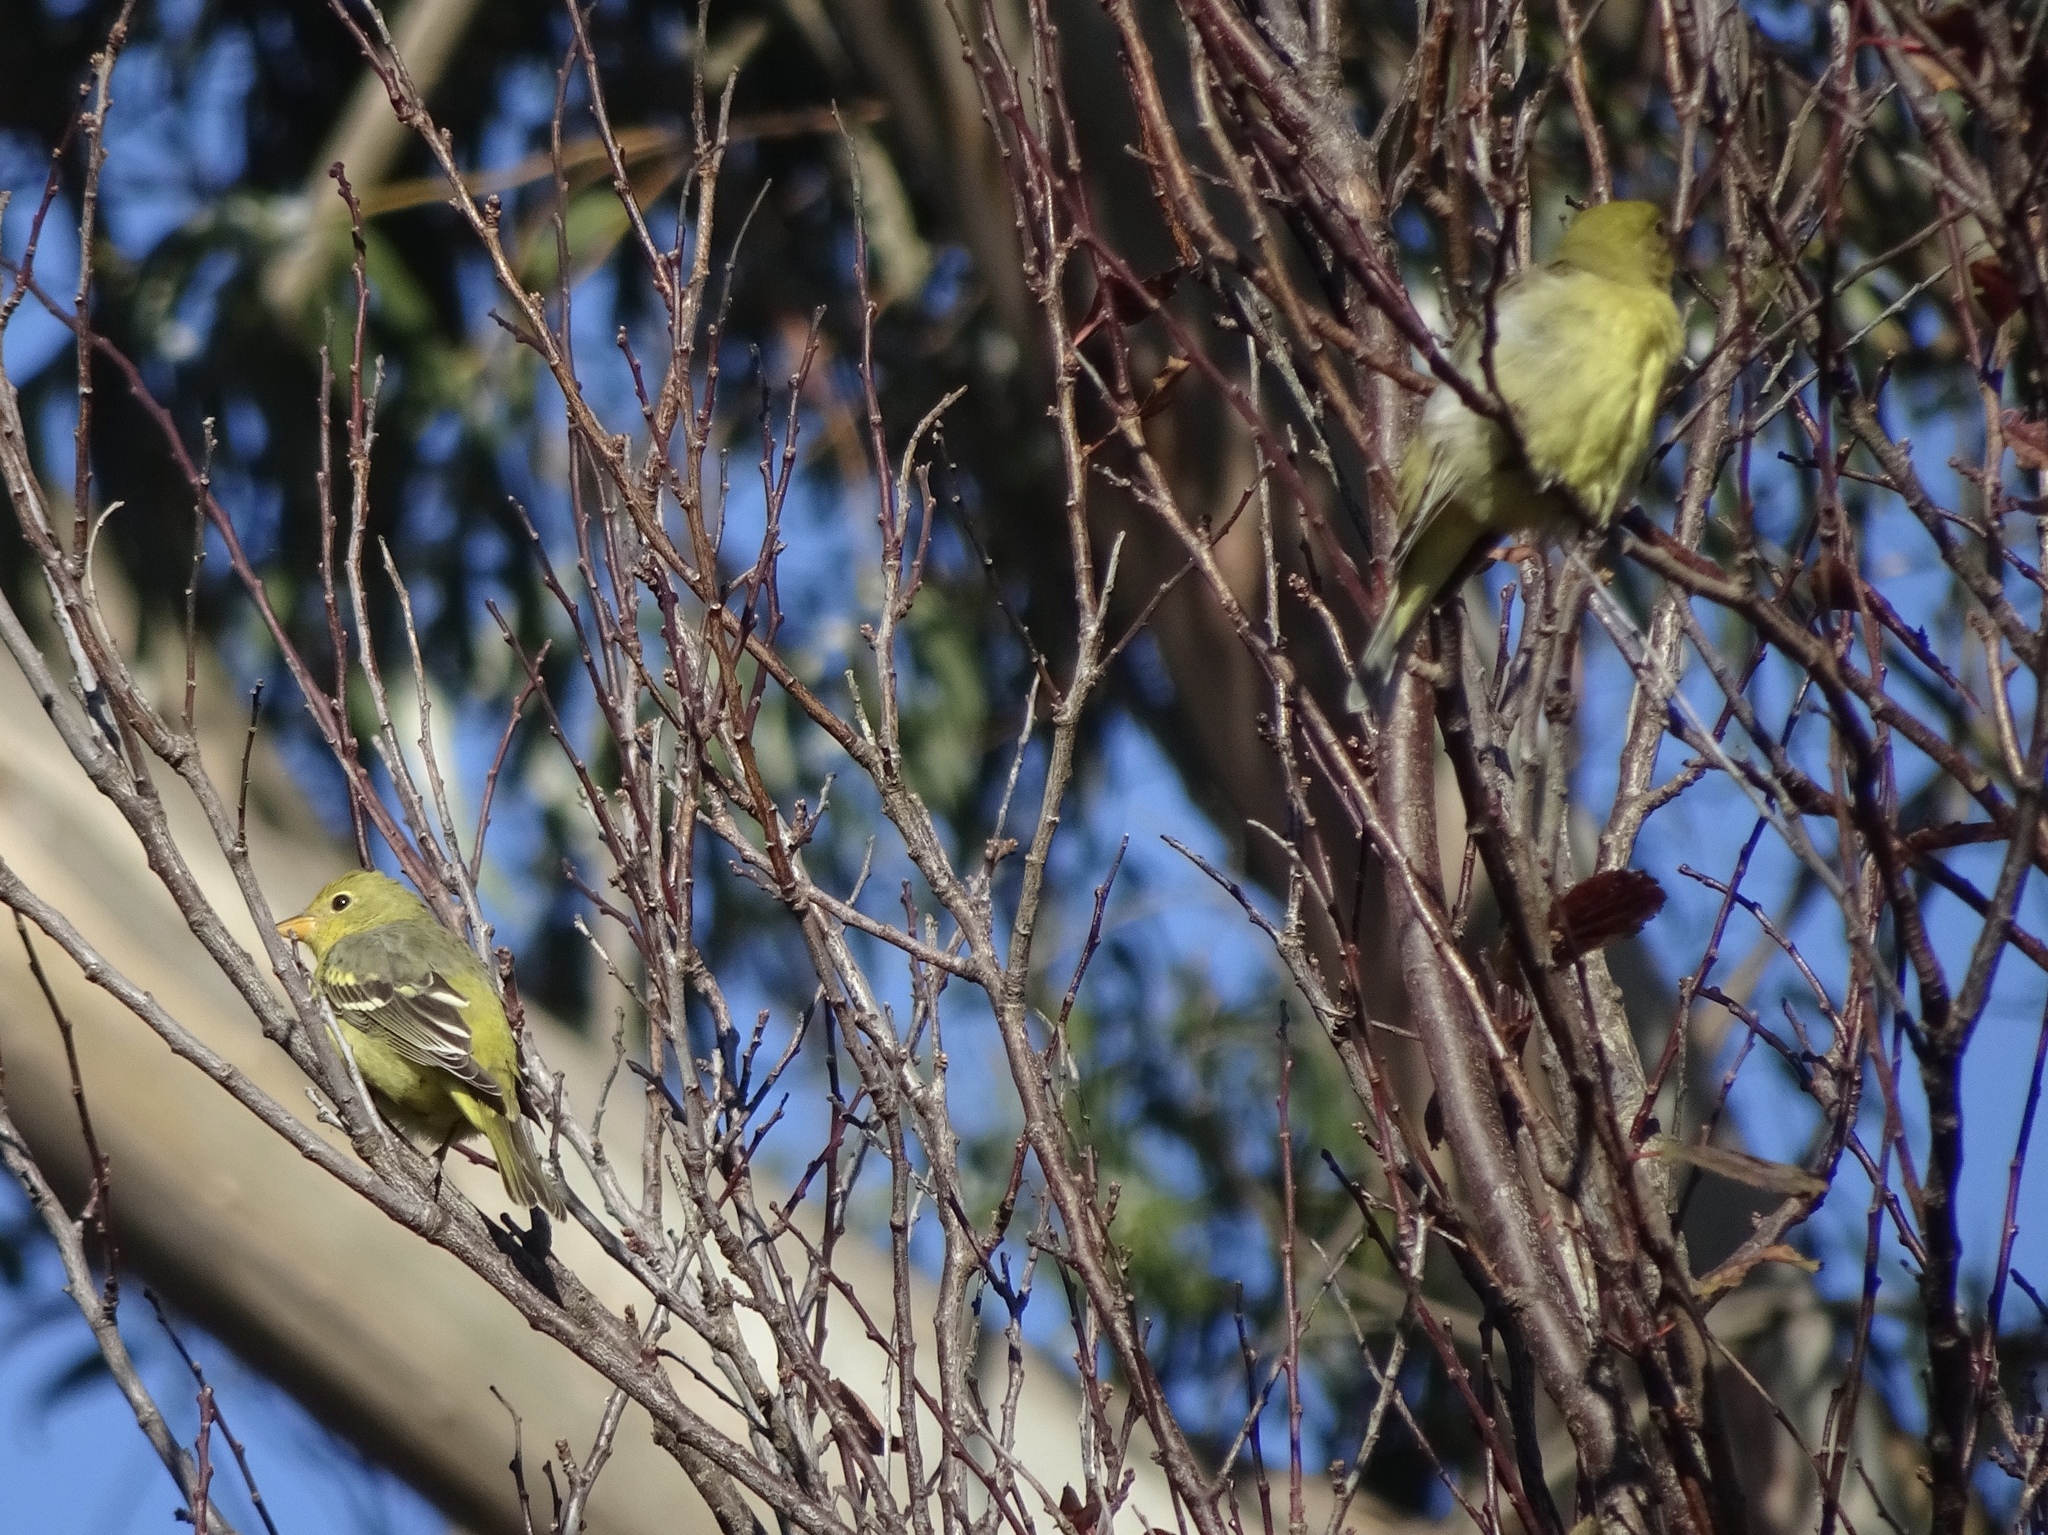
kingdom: Animalia
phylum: Chordata
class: Aves
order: Passeriformes
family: Cardinalidae
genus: Piranga
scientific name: Piranga ludoviciana
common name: Western tanager
